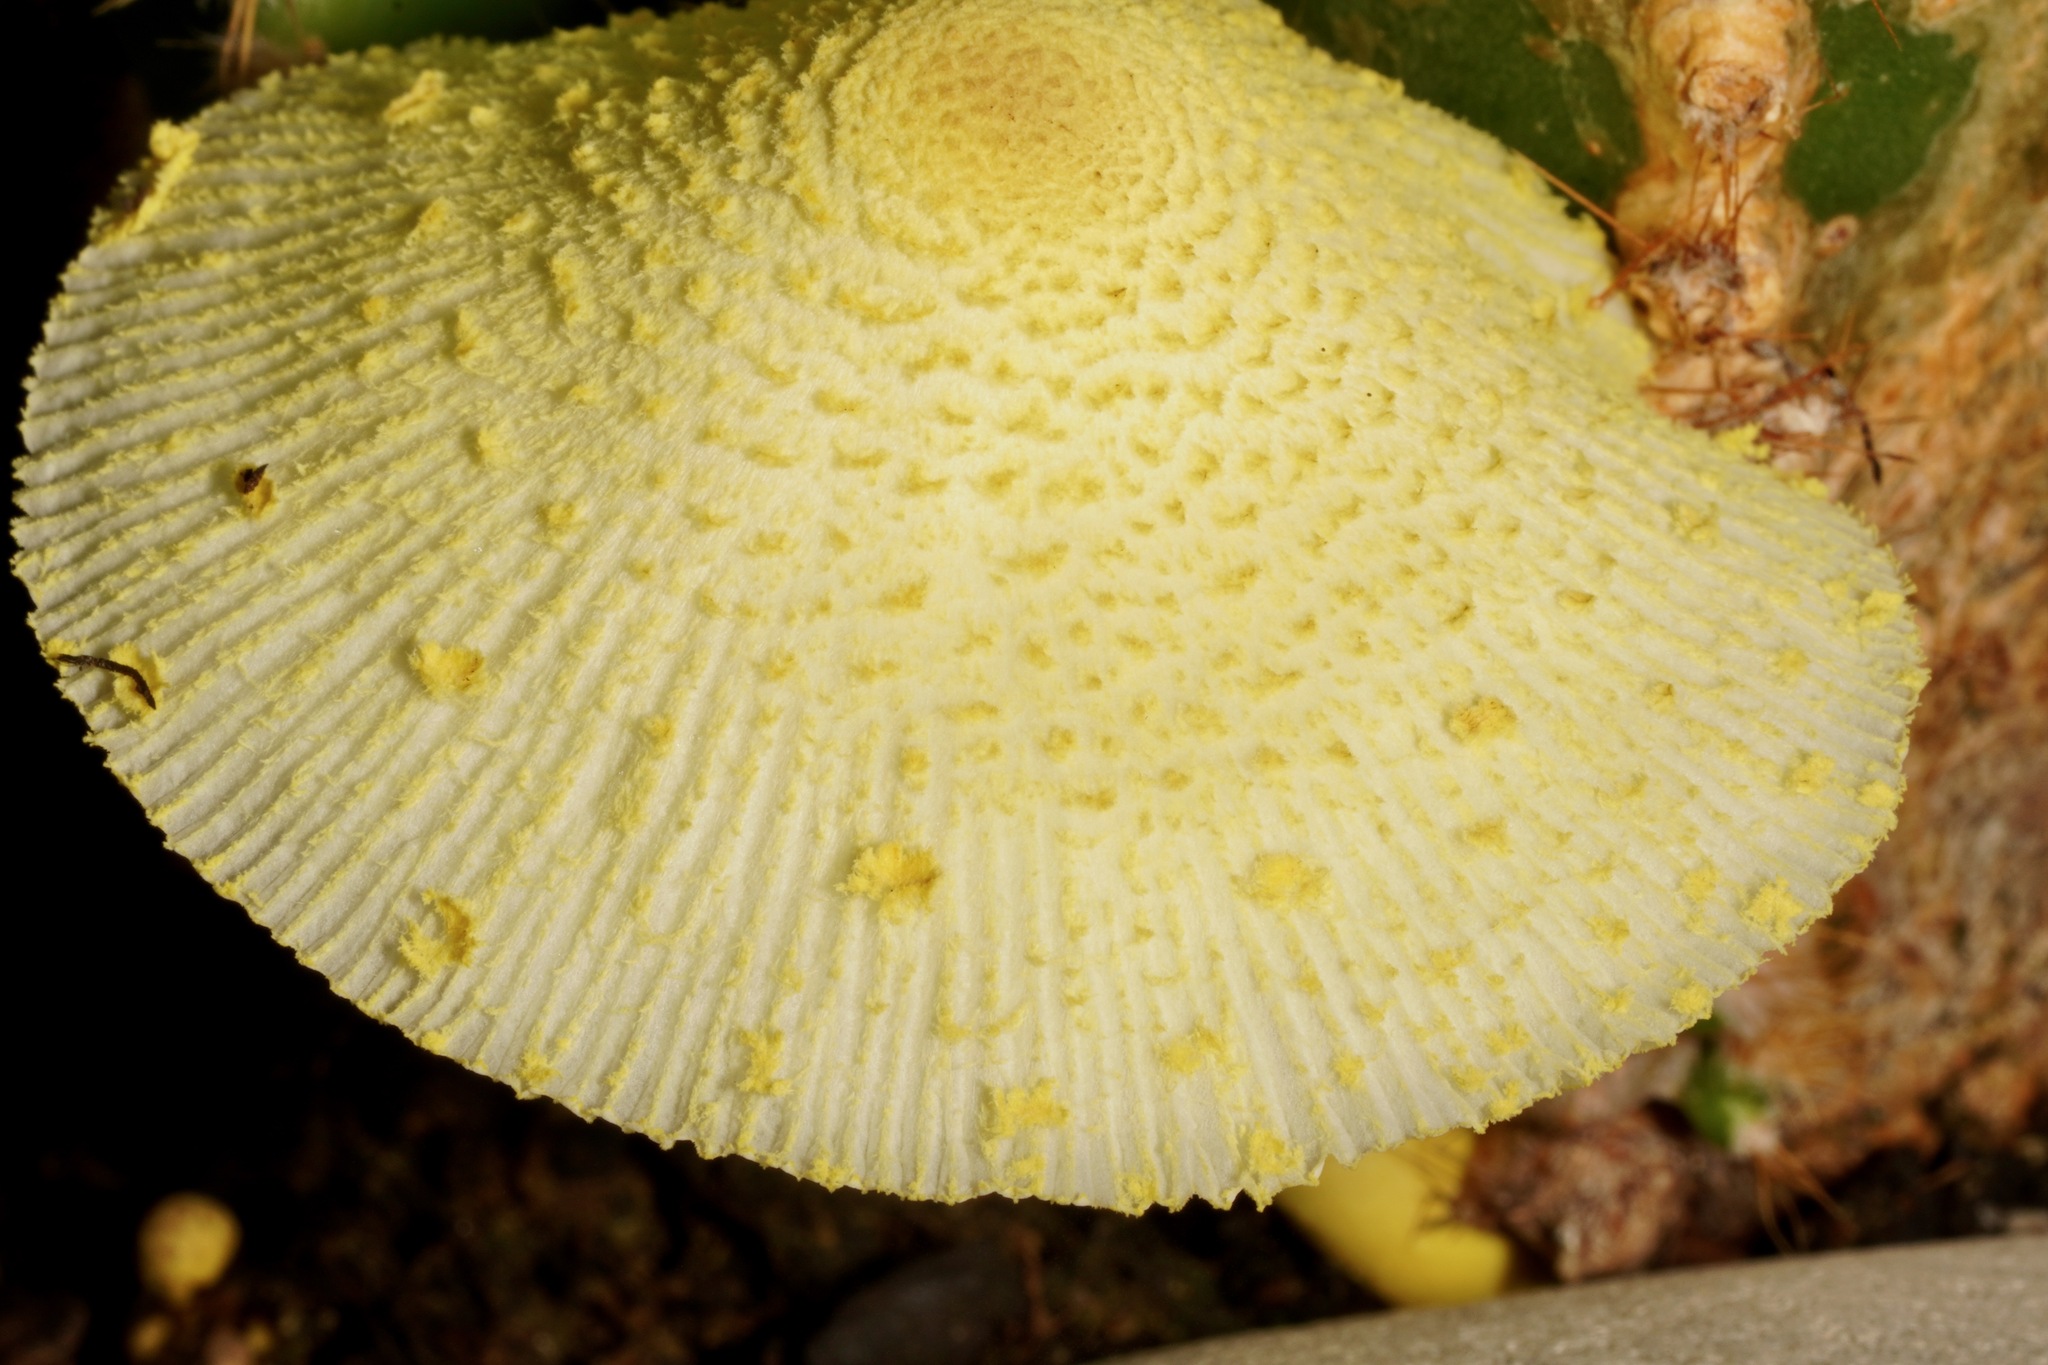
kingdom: Fungi
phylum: Basidiomycota
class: Agaricomycetes
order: Agaricales
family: Agaricaceae
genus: Leucocoprinus
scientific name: Leucocoprinus birnbaumii
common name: Plantpot dapperling
